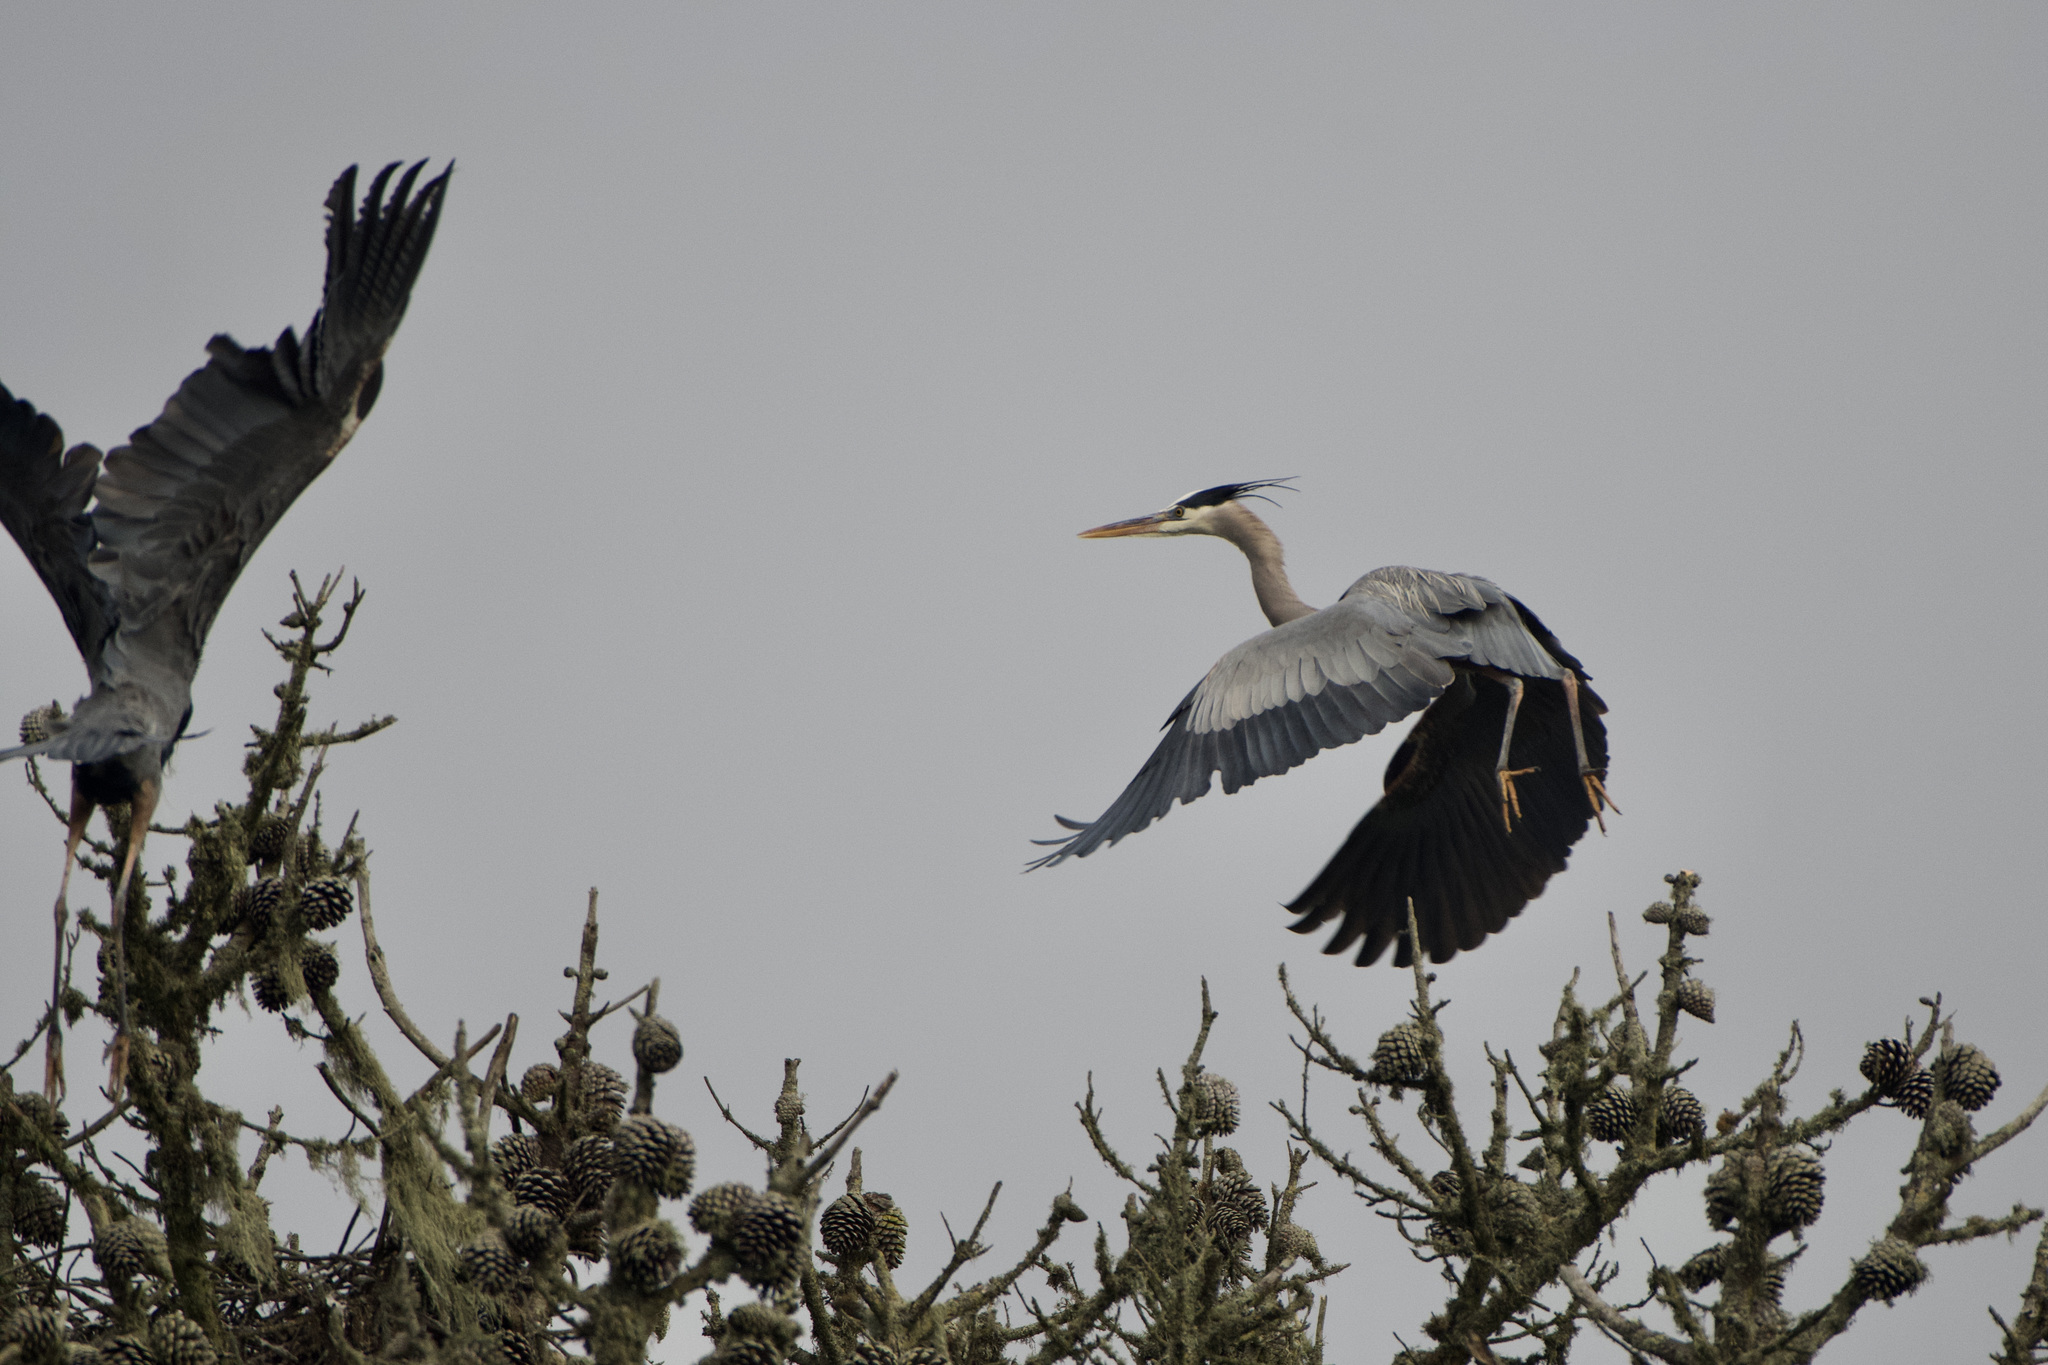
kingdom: Animalia
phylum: Chordata
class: Aves
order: Pelecaniformes
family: Ardeidae
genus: Ardea
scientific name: Ardea herodias
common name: Great blue heron
